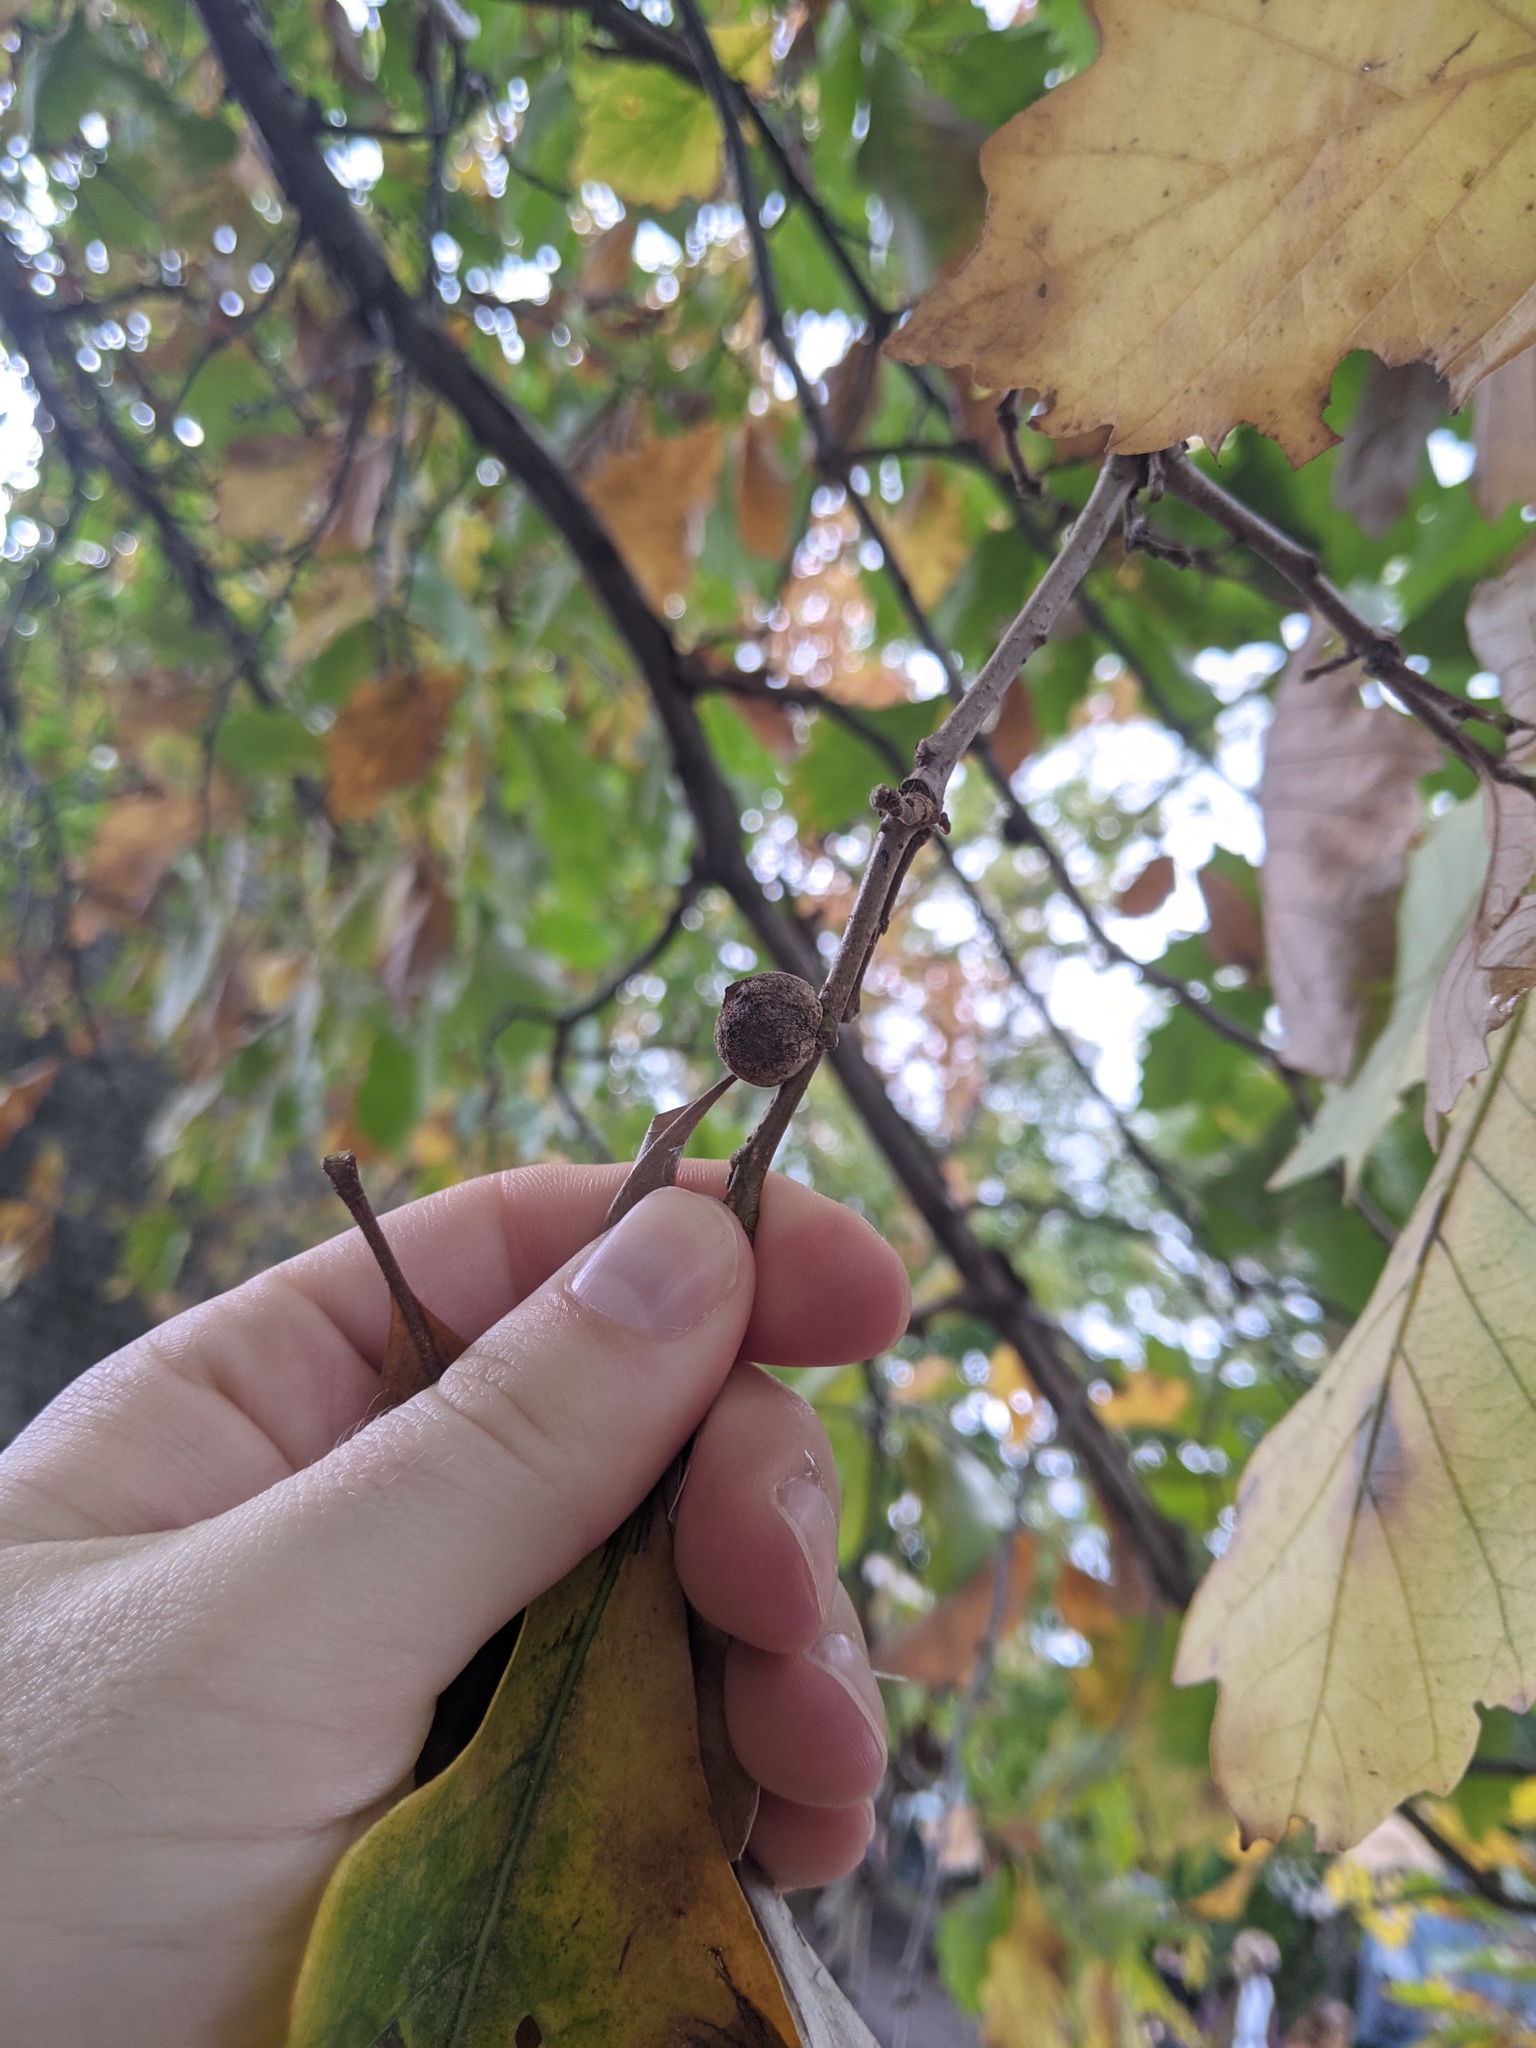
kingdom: Animalia
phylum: Arthropoda
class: Insecta
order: Hymenoptera
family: Cynipidae
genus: Disholcaspis
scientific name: Disholcaspis
